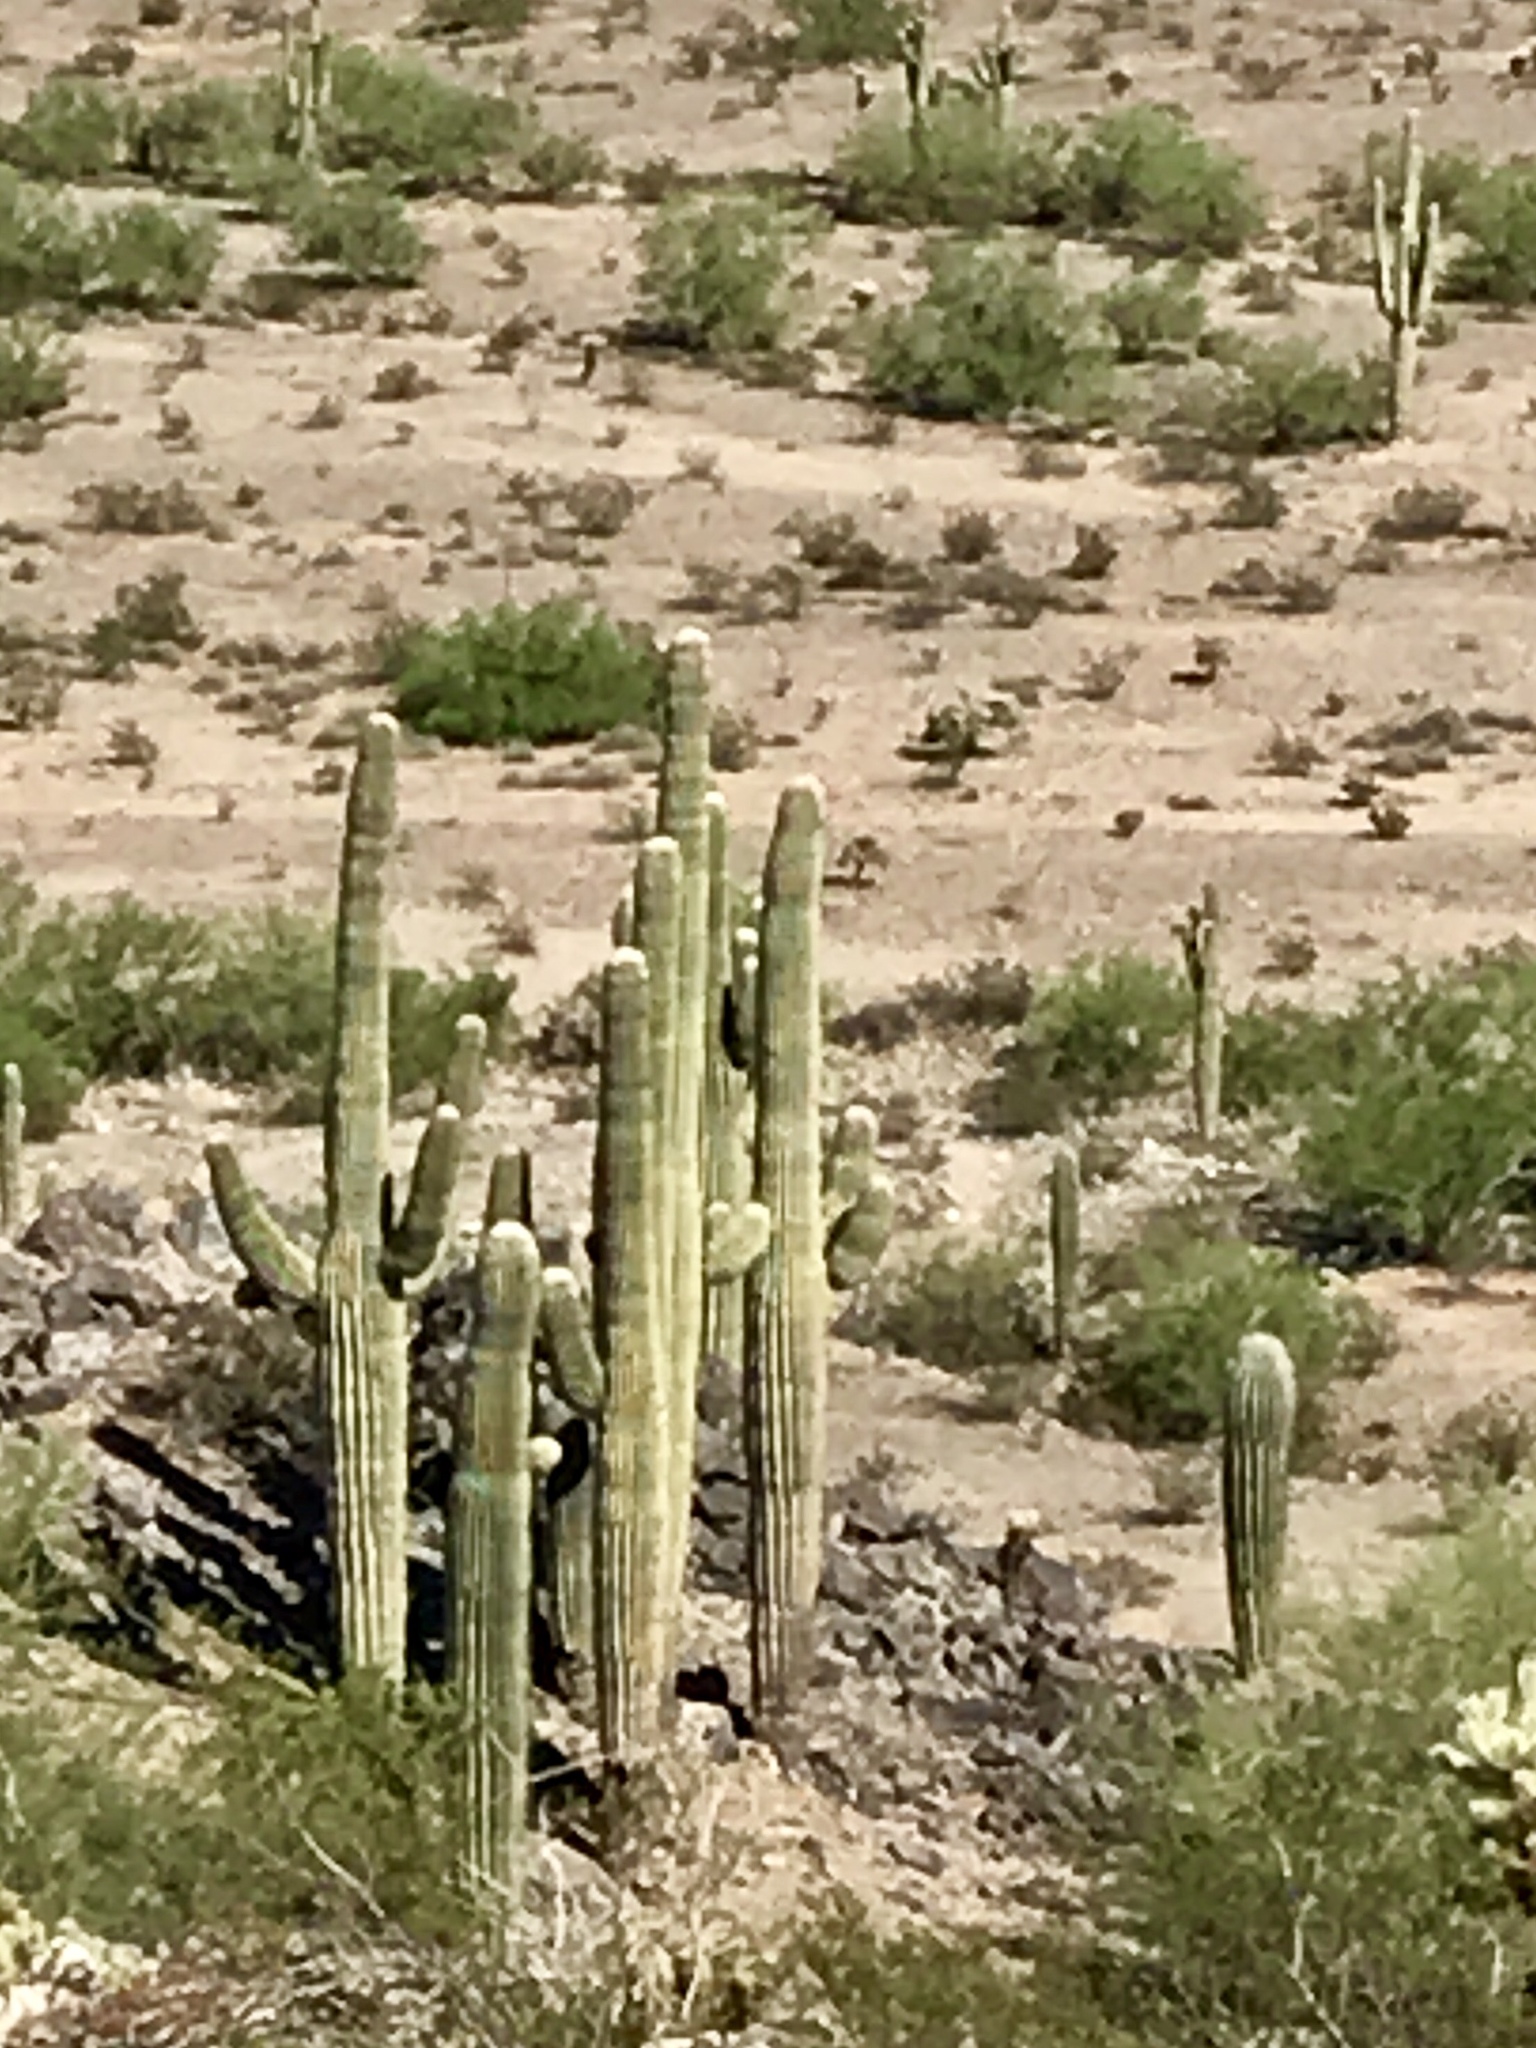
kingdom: Plantae
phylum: Tracheophyta
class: Magnoliopsida
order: Caryophyllales
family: Cactaceae
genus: Carnegiea
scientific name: Carnegiea gigantea
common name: Saguaro
